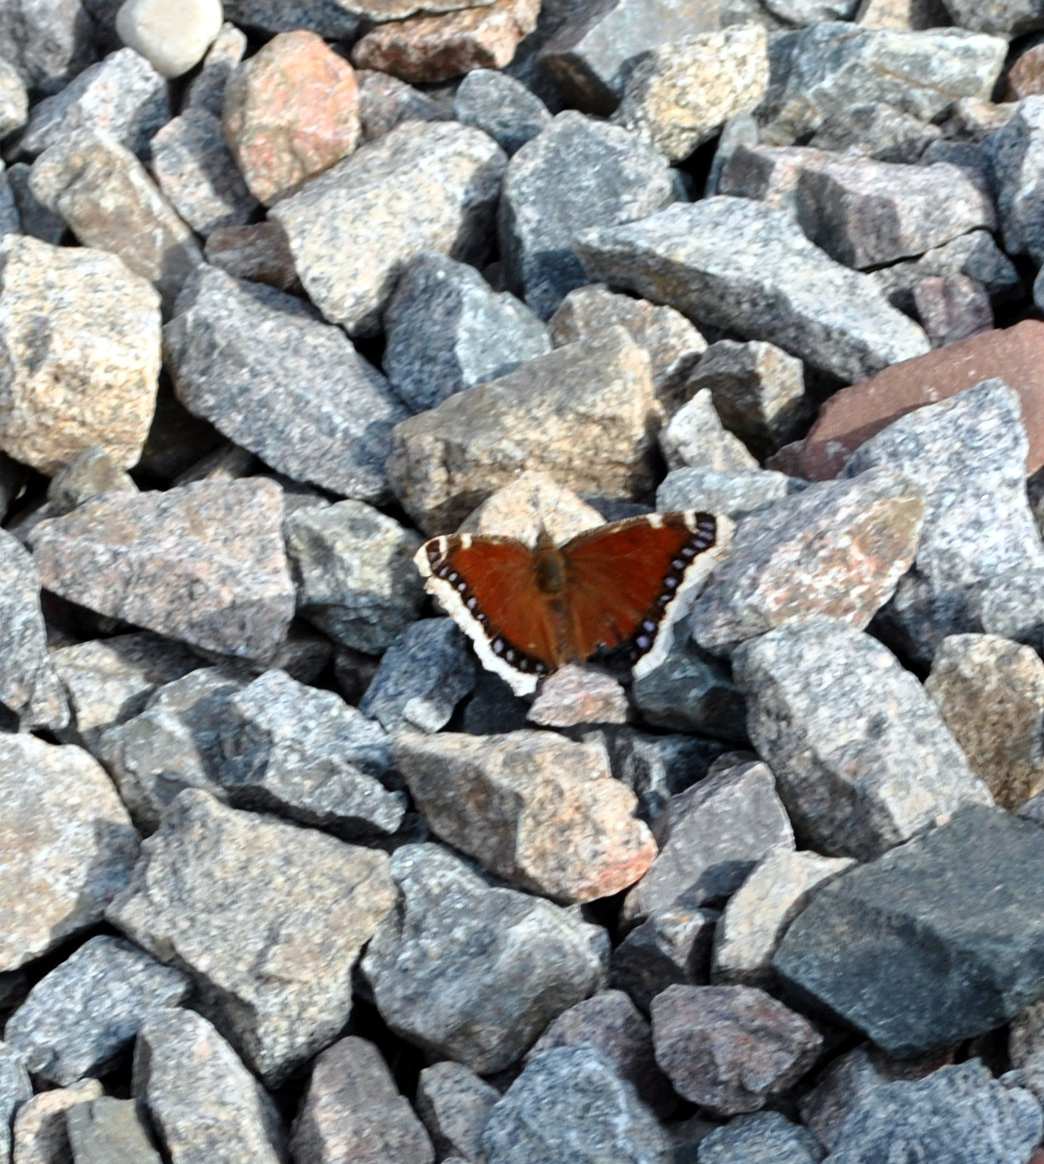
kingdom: Animalia
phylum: Arthropoda
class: Insecta
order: Lepidoptera
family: Nymphalidae
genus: Nymphalis
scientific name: Nymphalis antiopa
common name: Camberwell beauty
